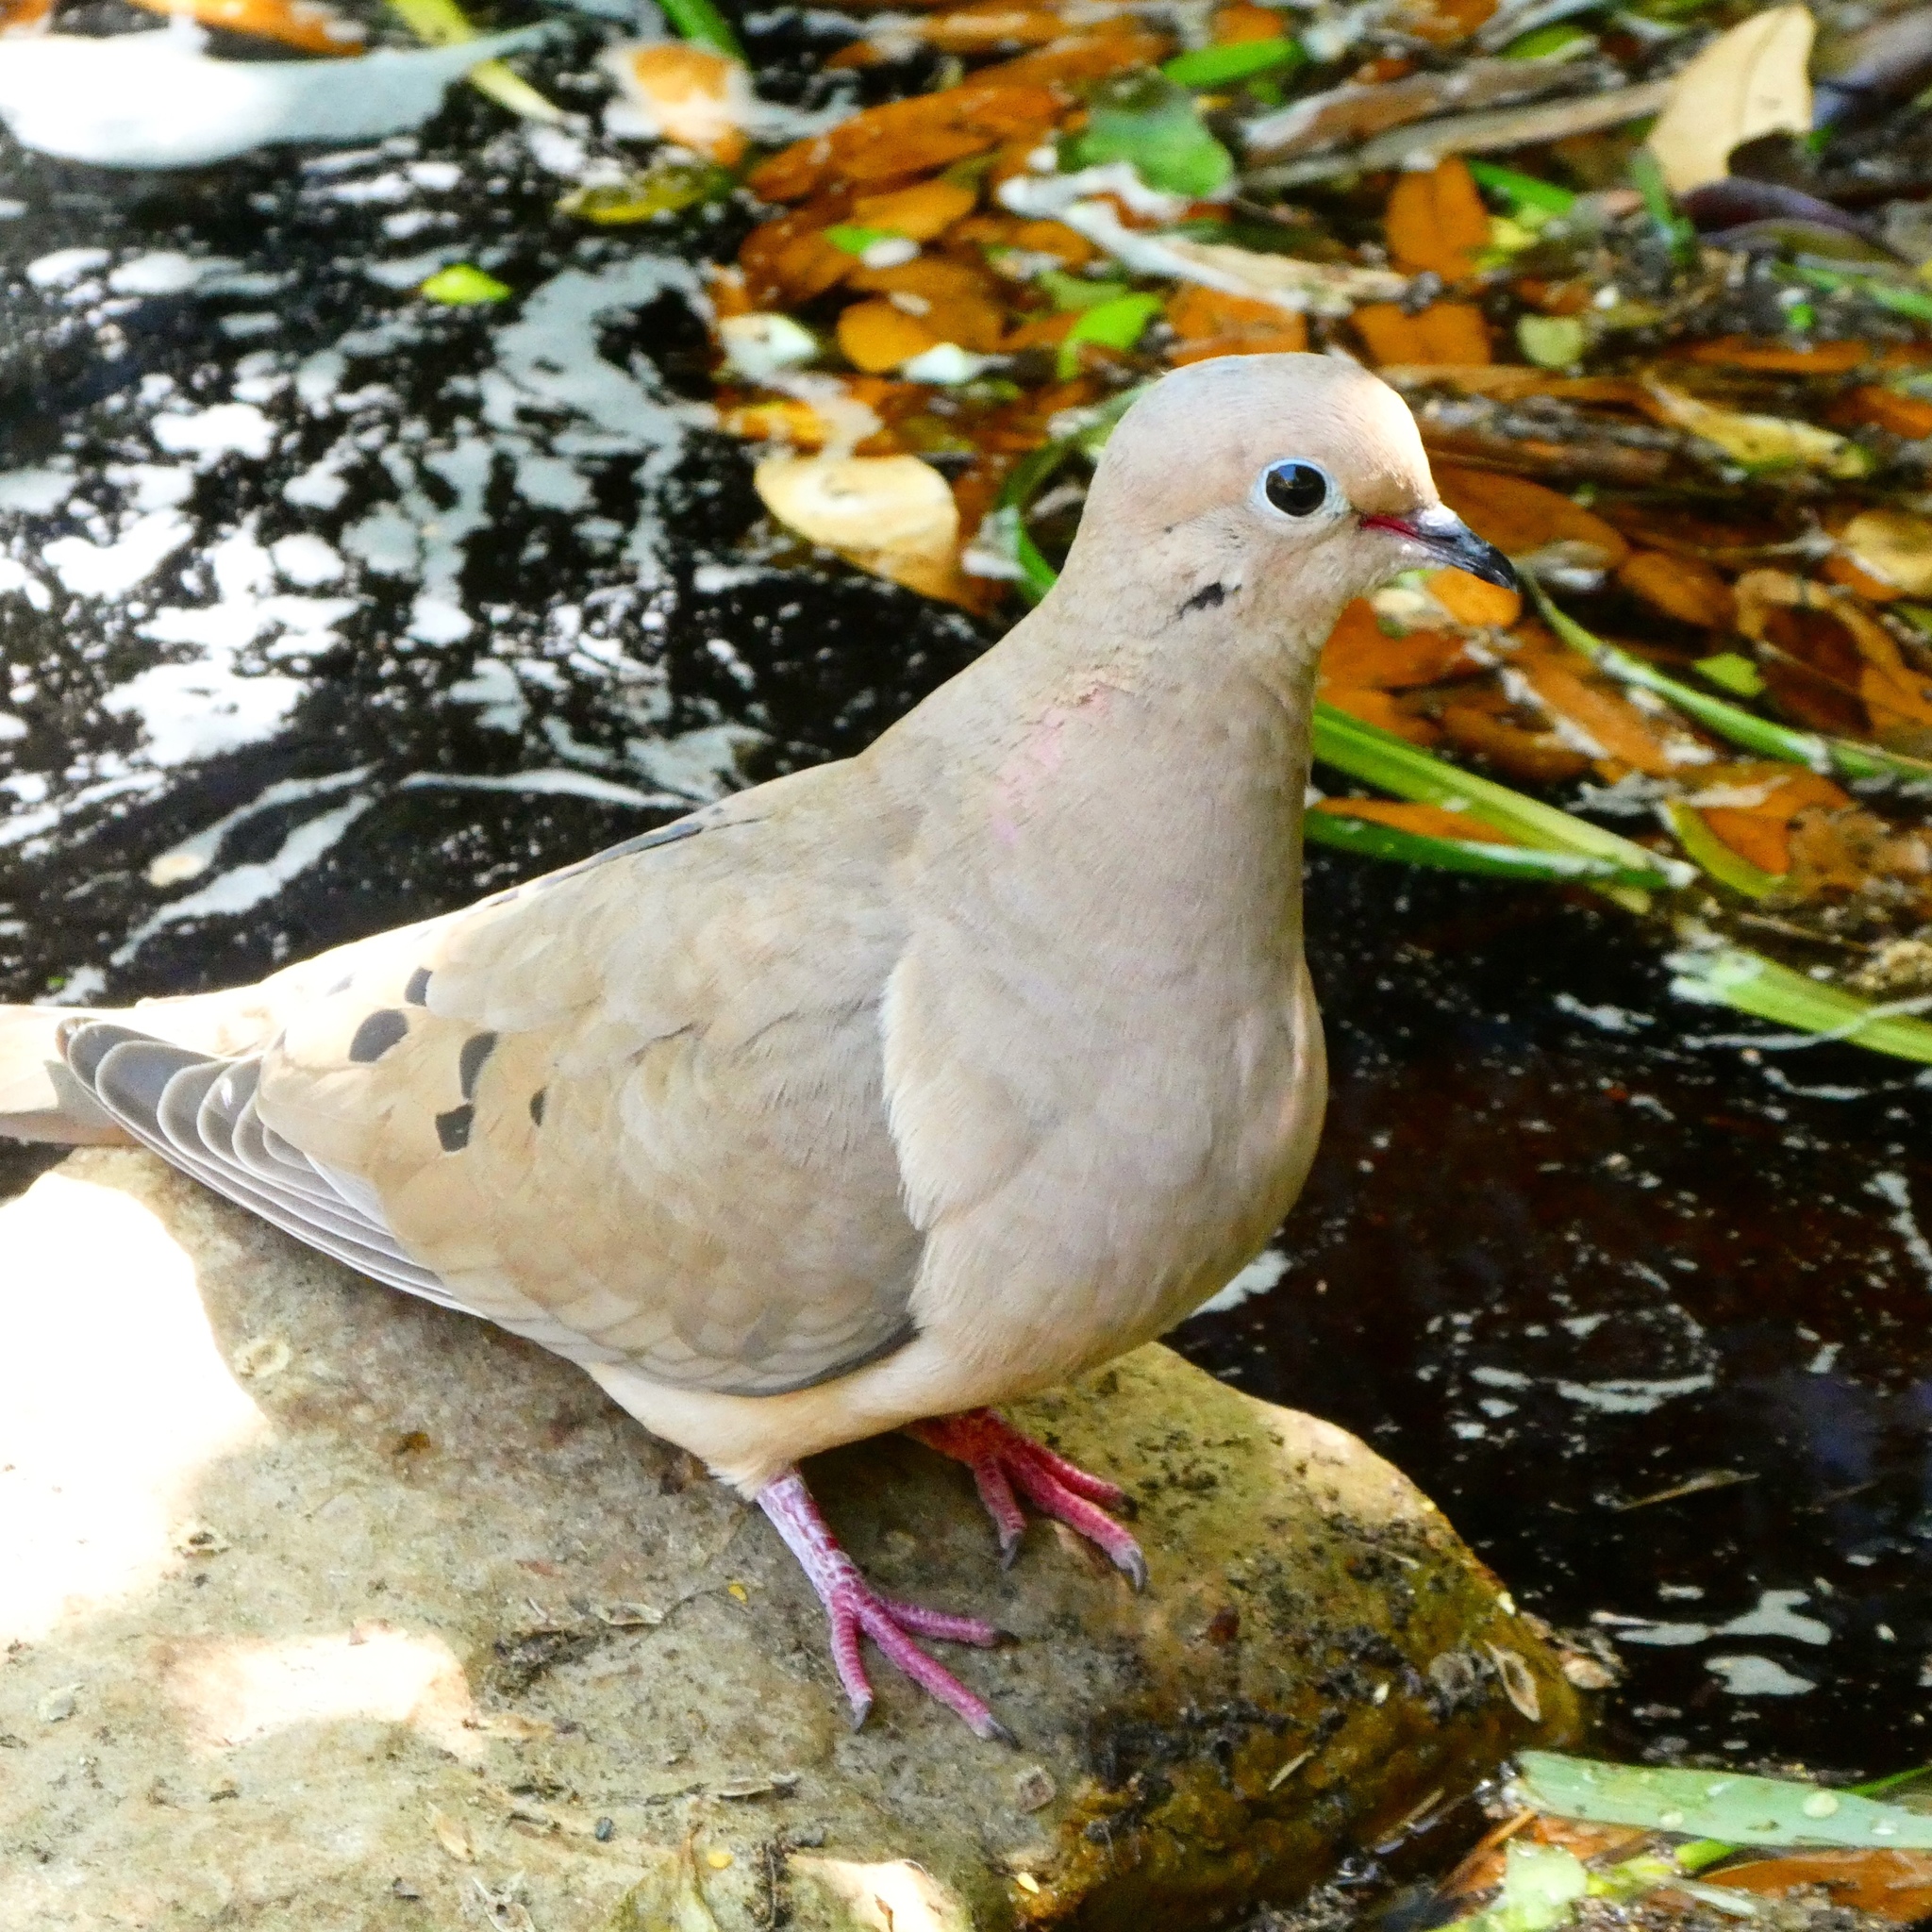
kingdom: Animalia
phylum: Chordata
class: Aves
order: Columbiformes
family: Columbidae
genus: Zenaida
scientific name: Zenaida macroura
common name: Mourning dove
